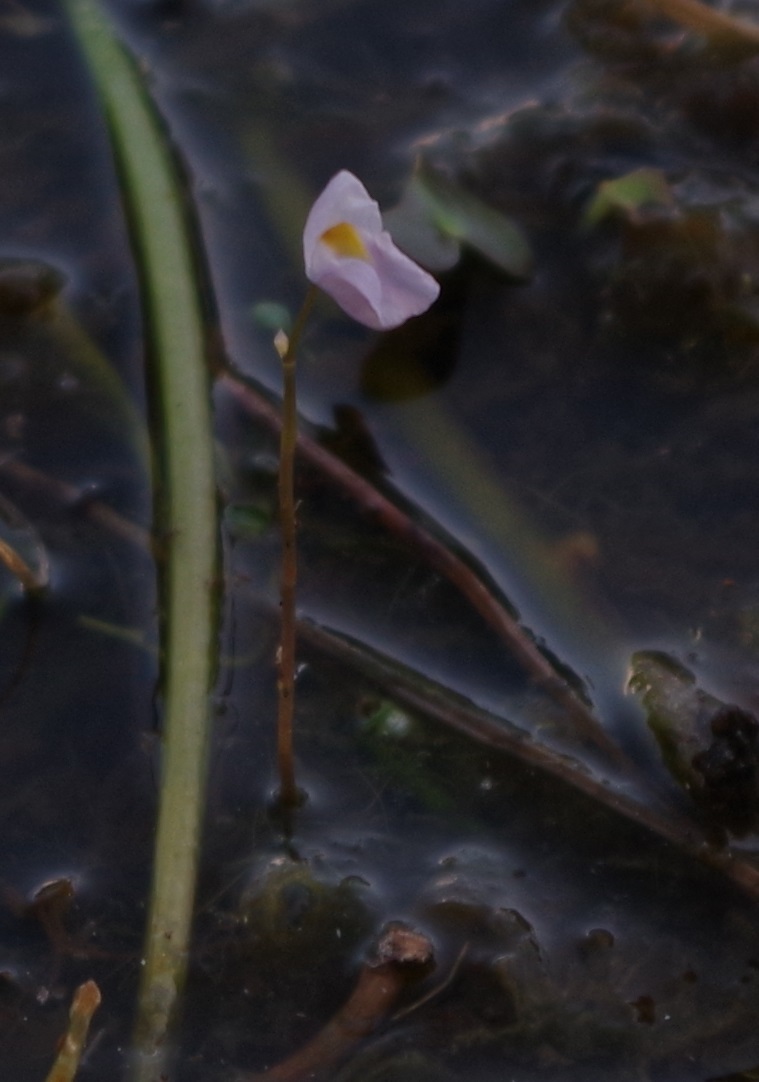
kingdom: Plantae
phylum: Tracheophyta
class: Magnoliopsida
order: Lamiales
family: Lentibulariaceae
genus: Utricularia
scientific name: Utricularia punctata
